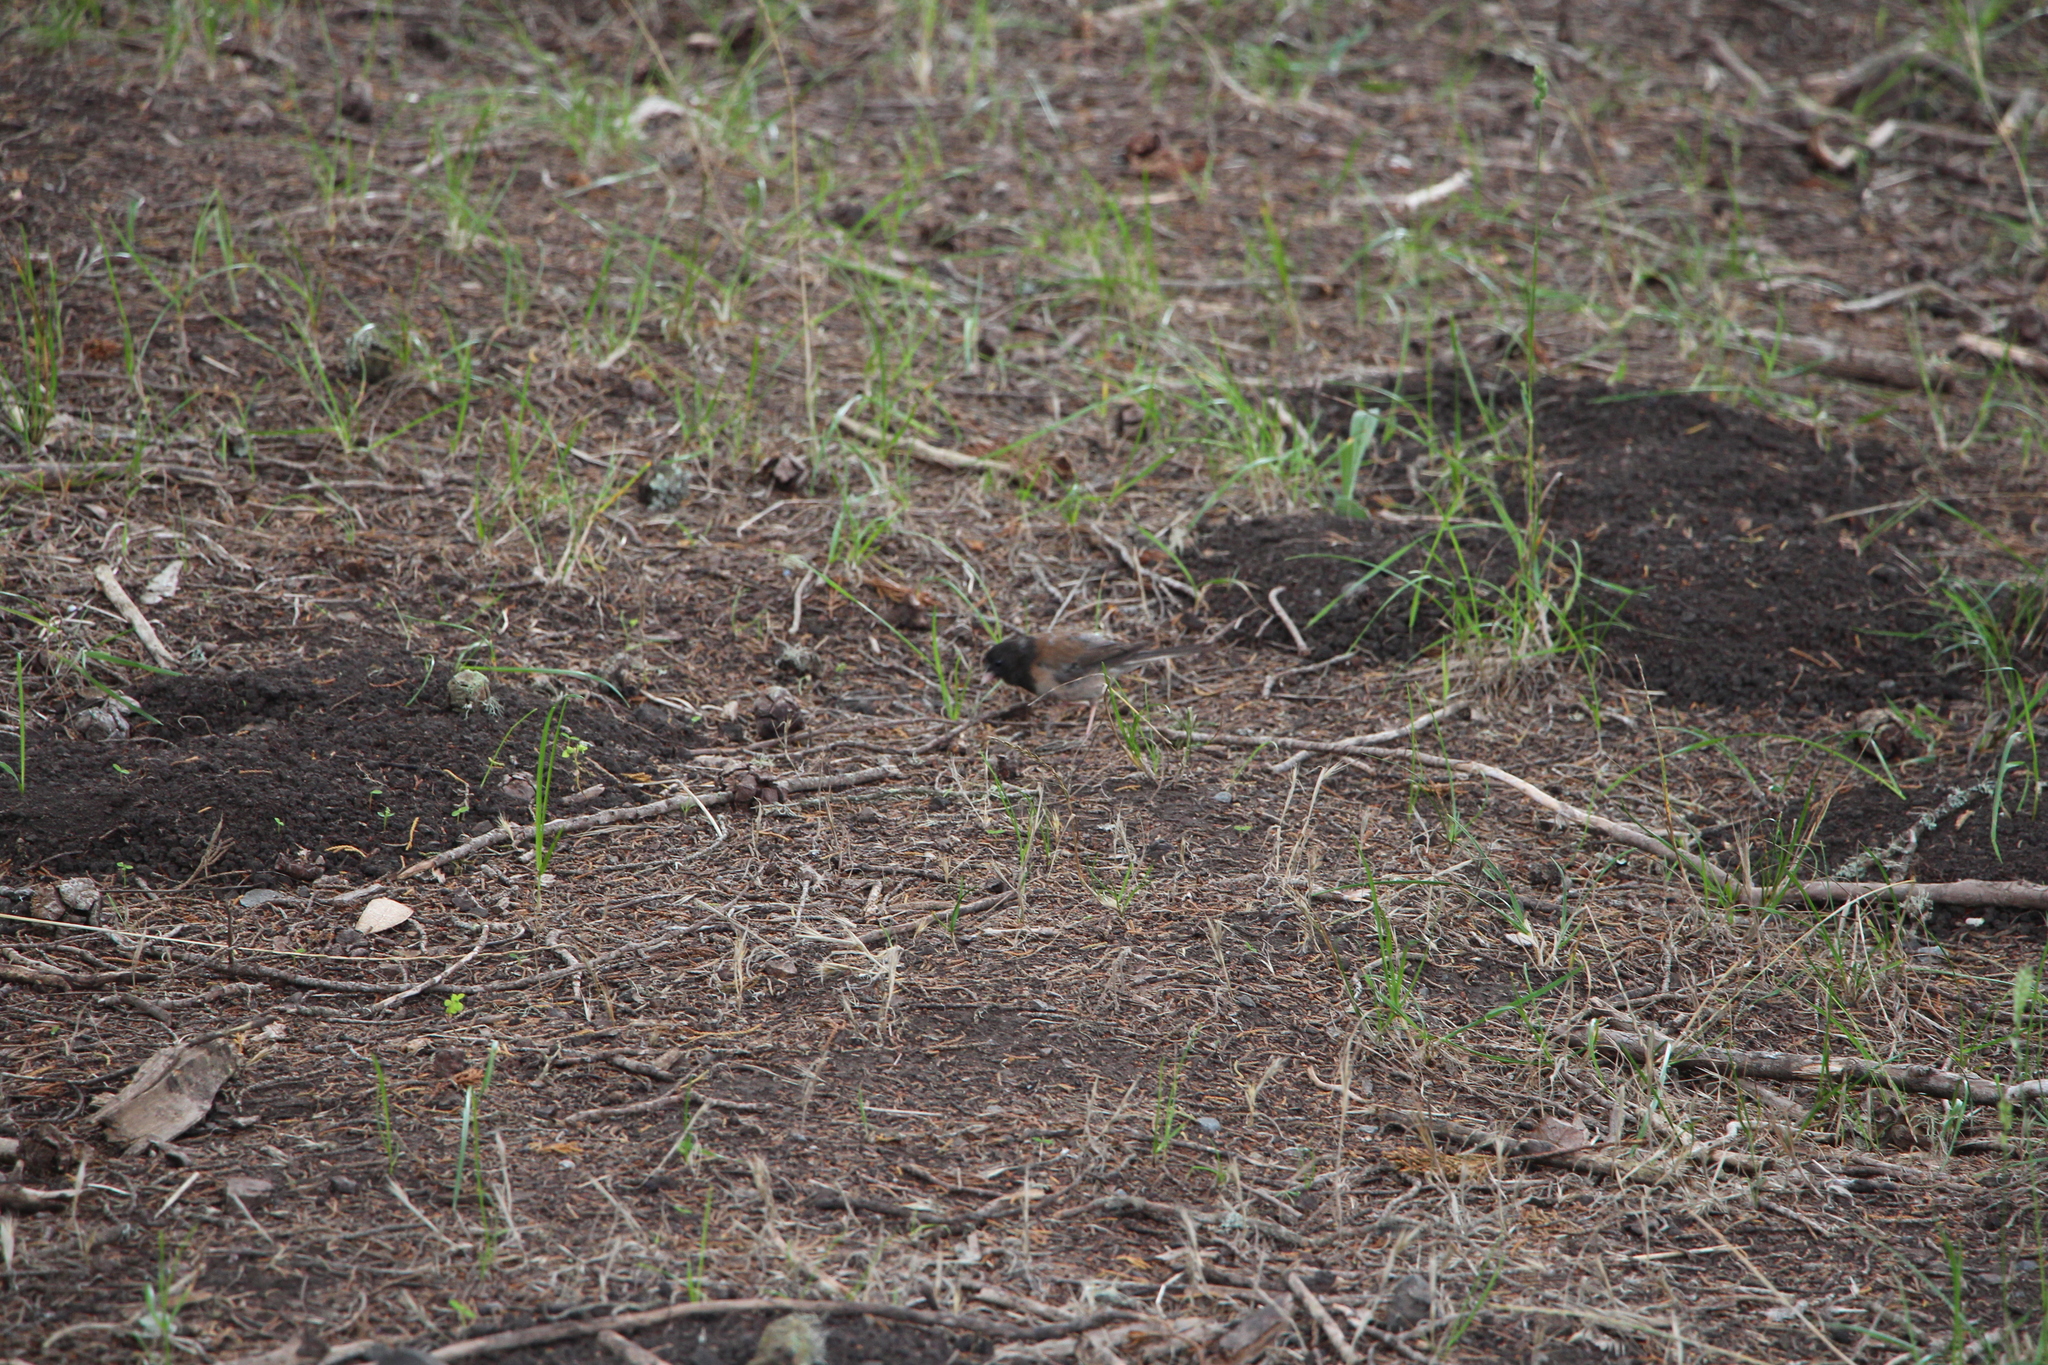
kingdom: Animalia
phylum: Chordata
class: Aves
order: Passeriformes
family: Passerellidae
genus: Junco
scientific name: Junco hyemalis
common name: Dark-eyed junco
